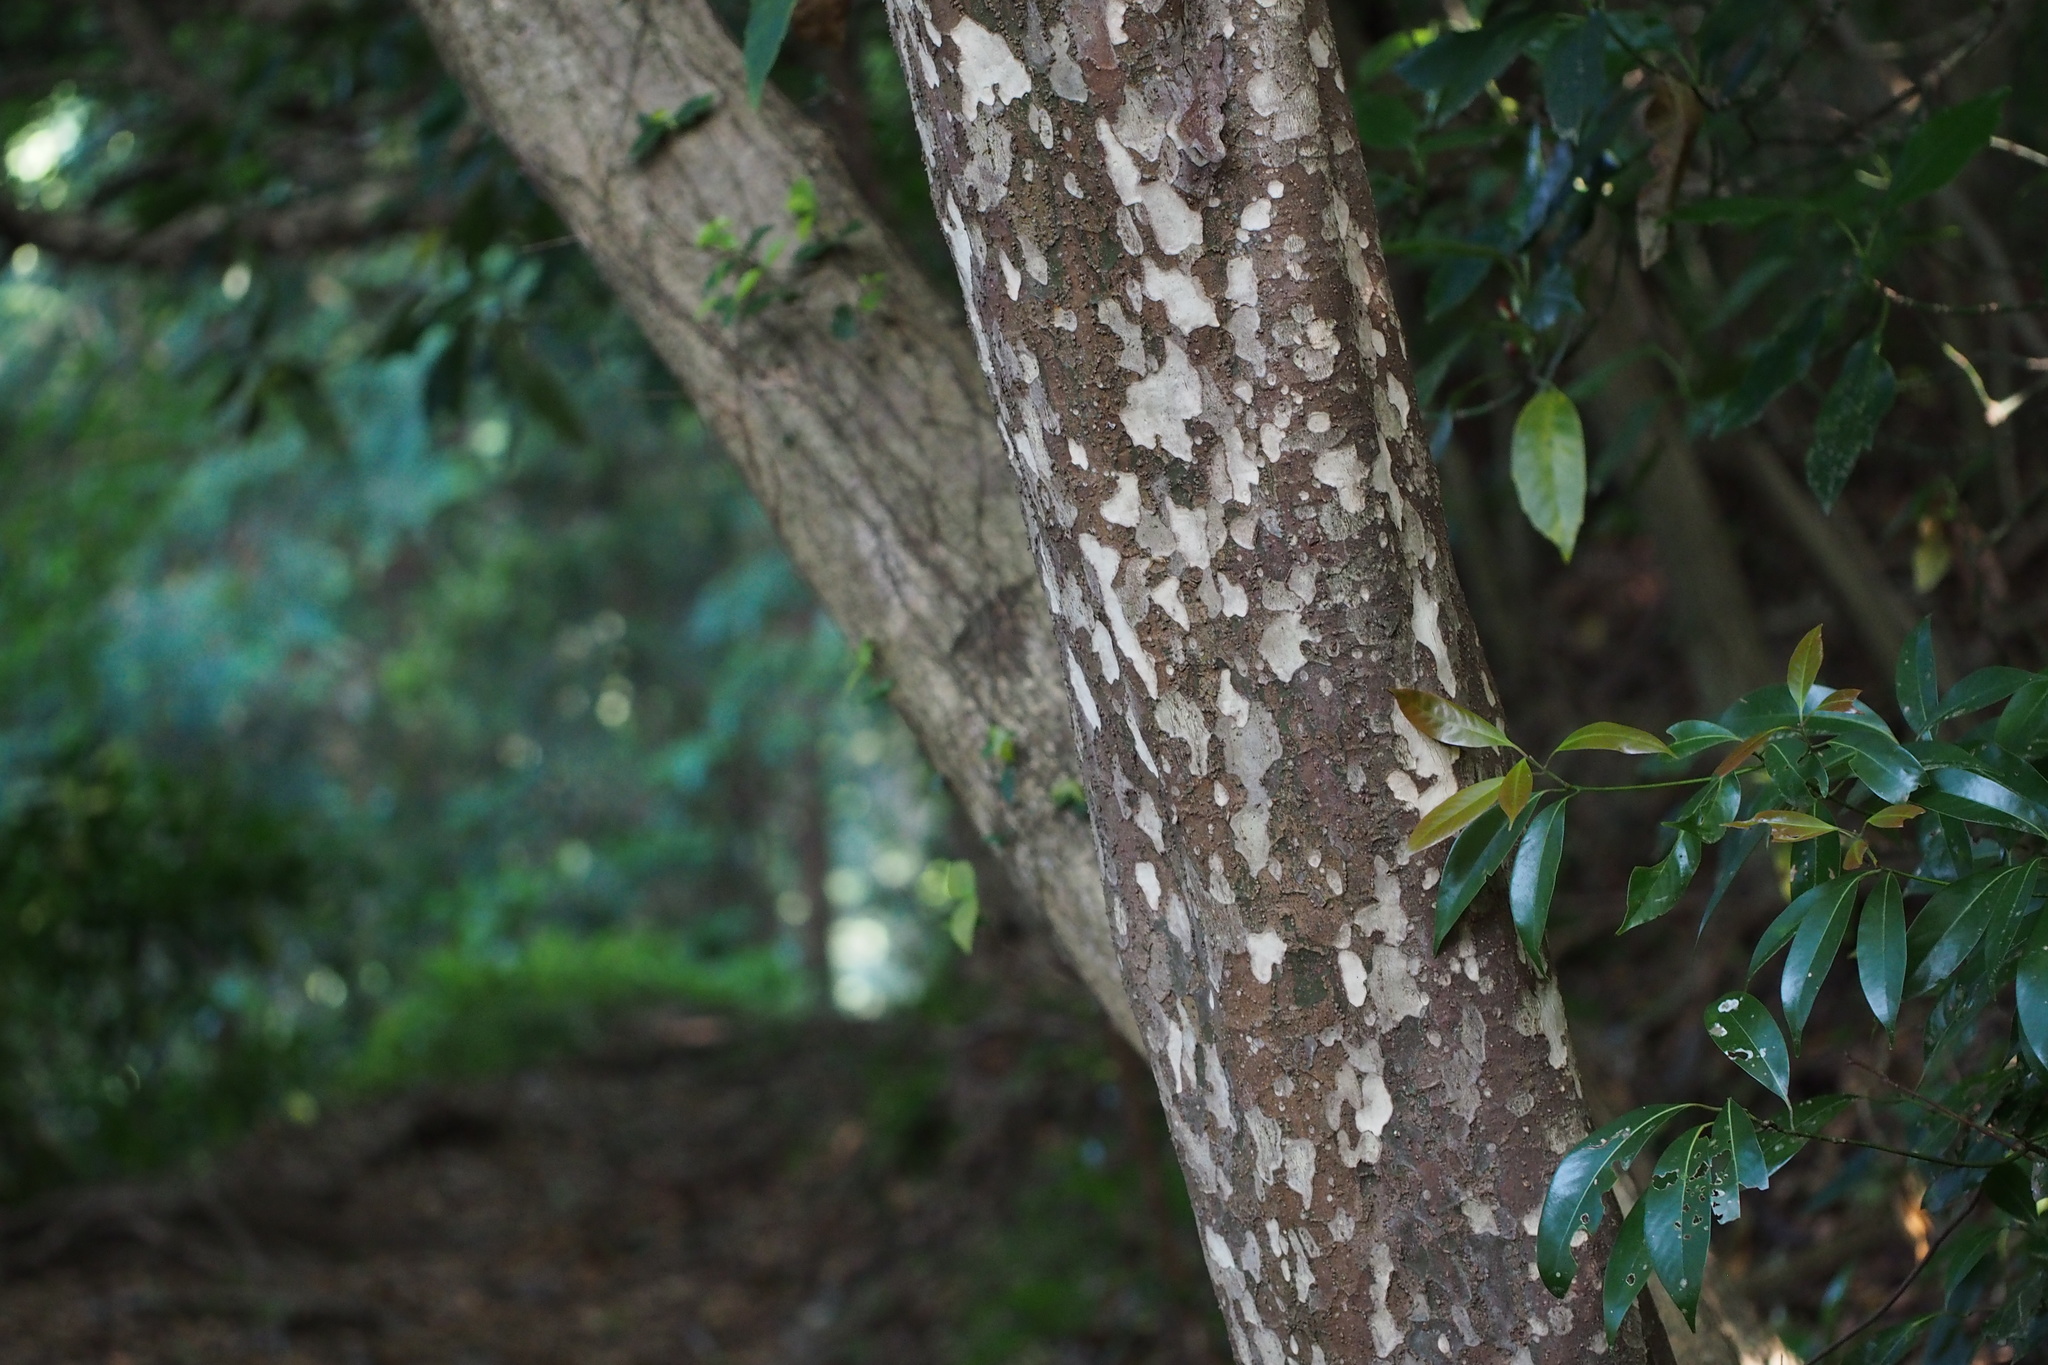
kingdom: Plantae
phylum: Tracheophyta
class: Magnoliopsida
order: Laurales
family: Lauraceae
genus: Litsea
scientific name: Litsea coreana
